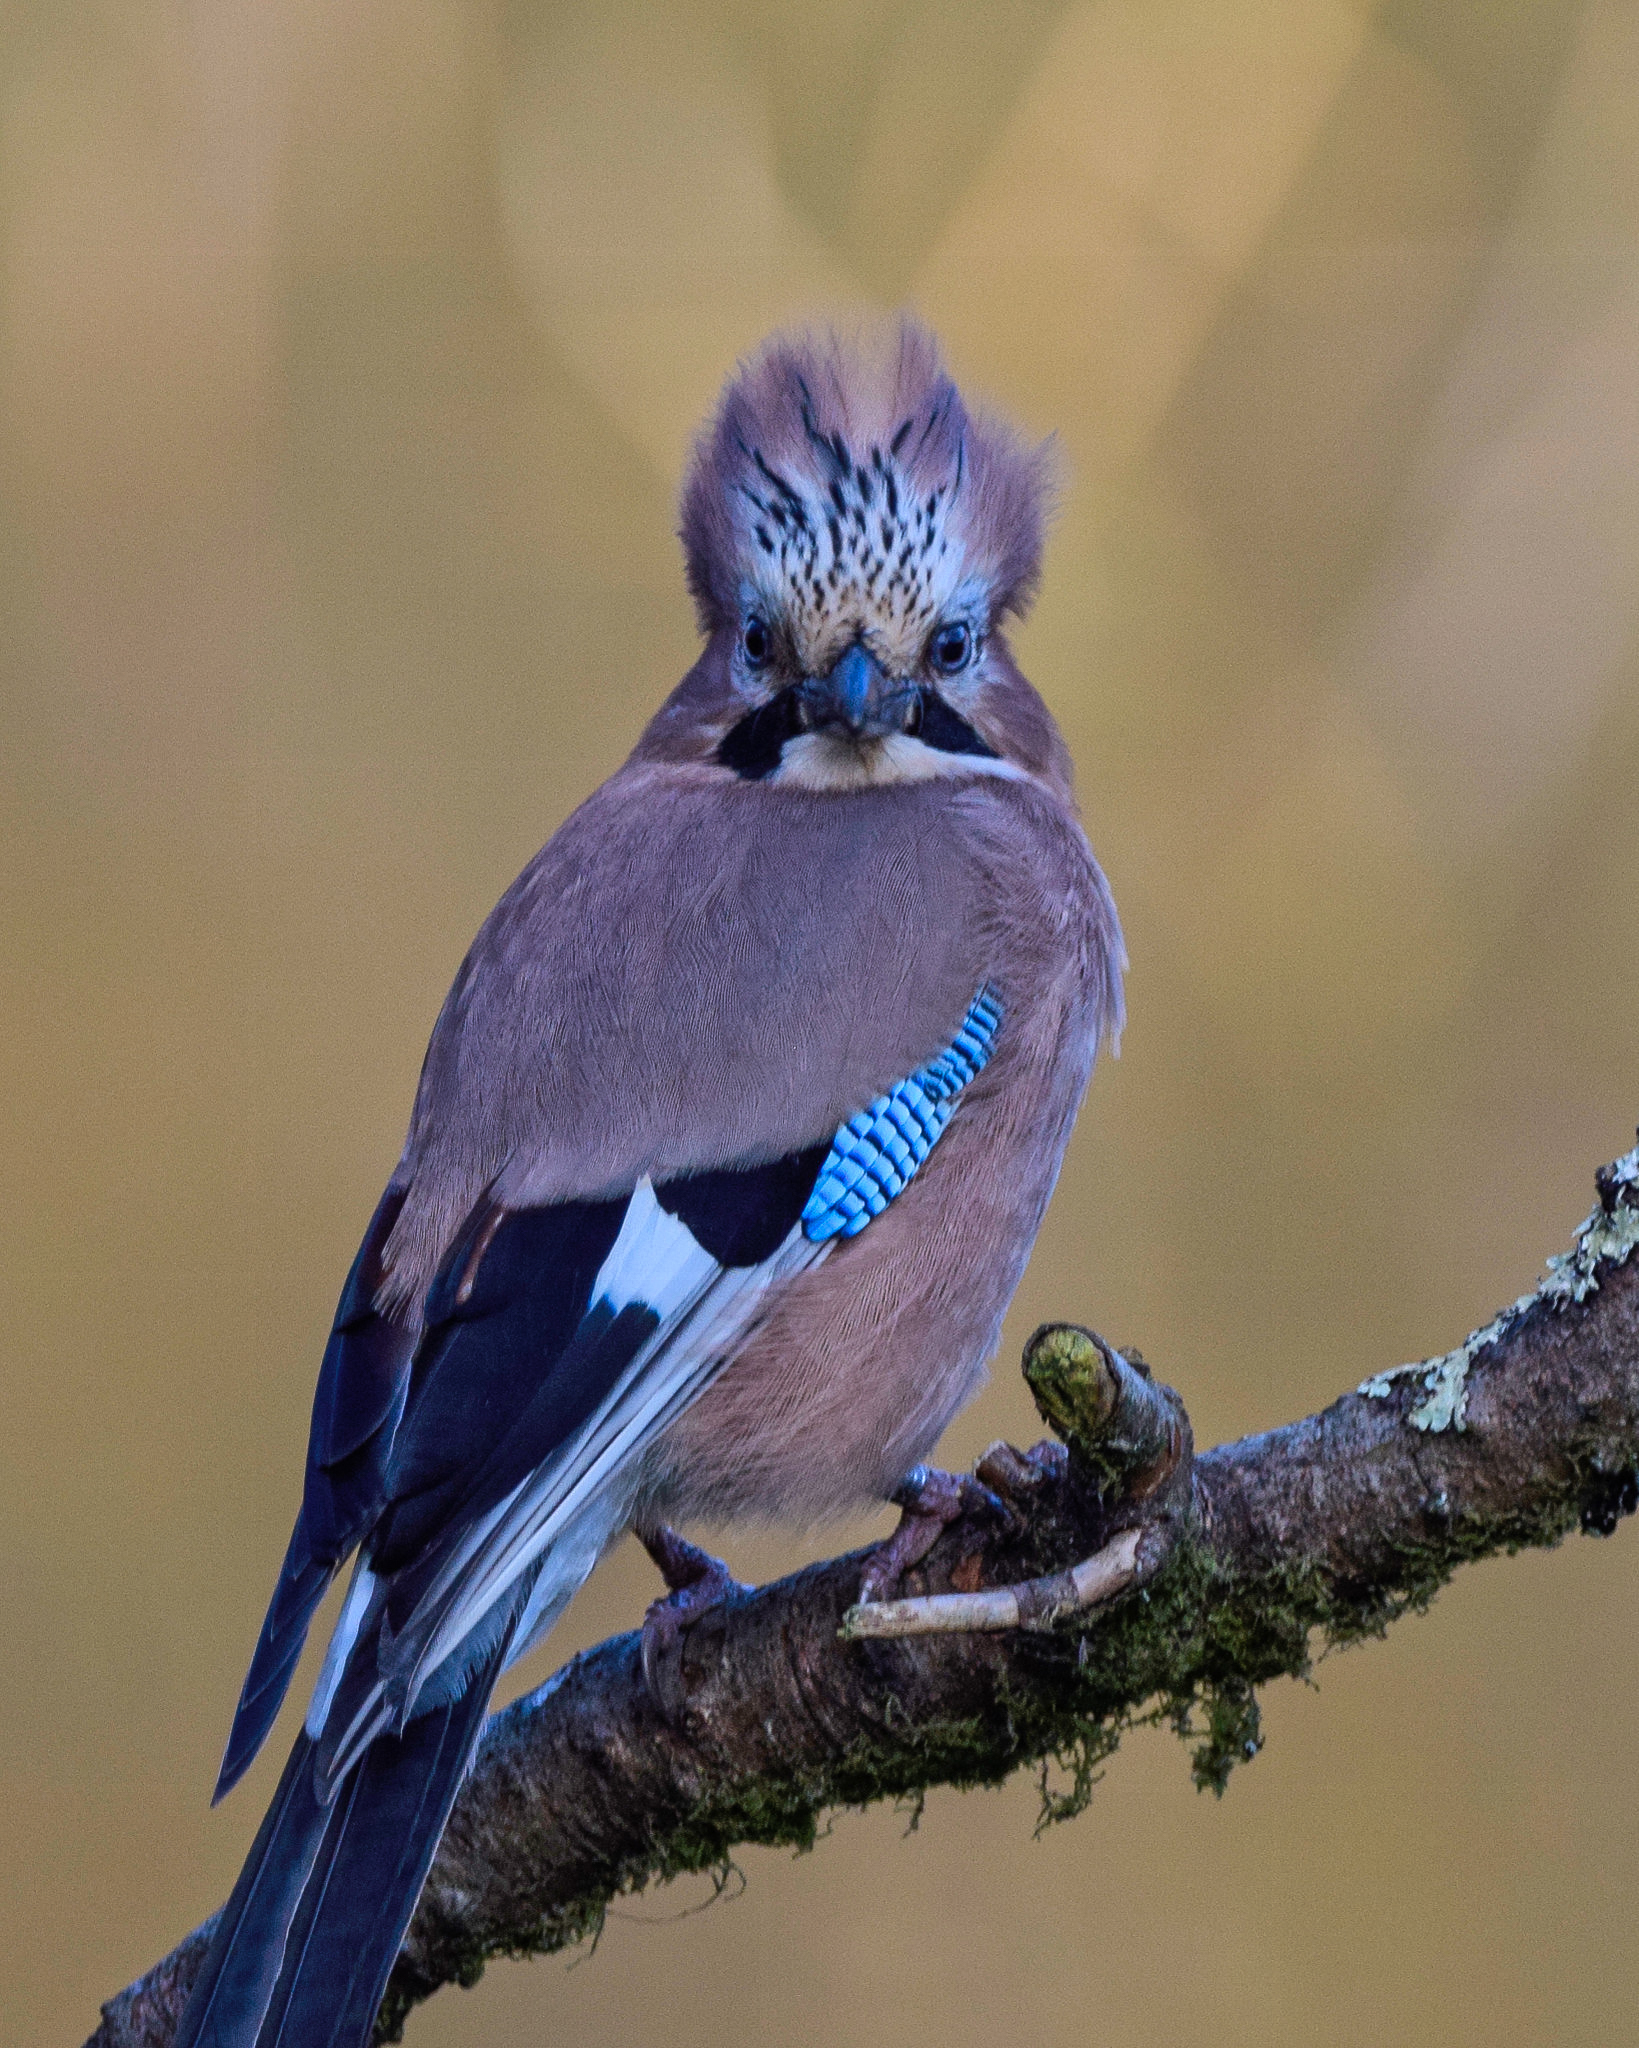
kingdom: Animalia
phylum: Chordata
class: Aves
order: Passeriformes
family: Corvidae
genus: Garrulus
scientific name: Garrulus glandarius
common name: Eurasian jay
